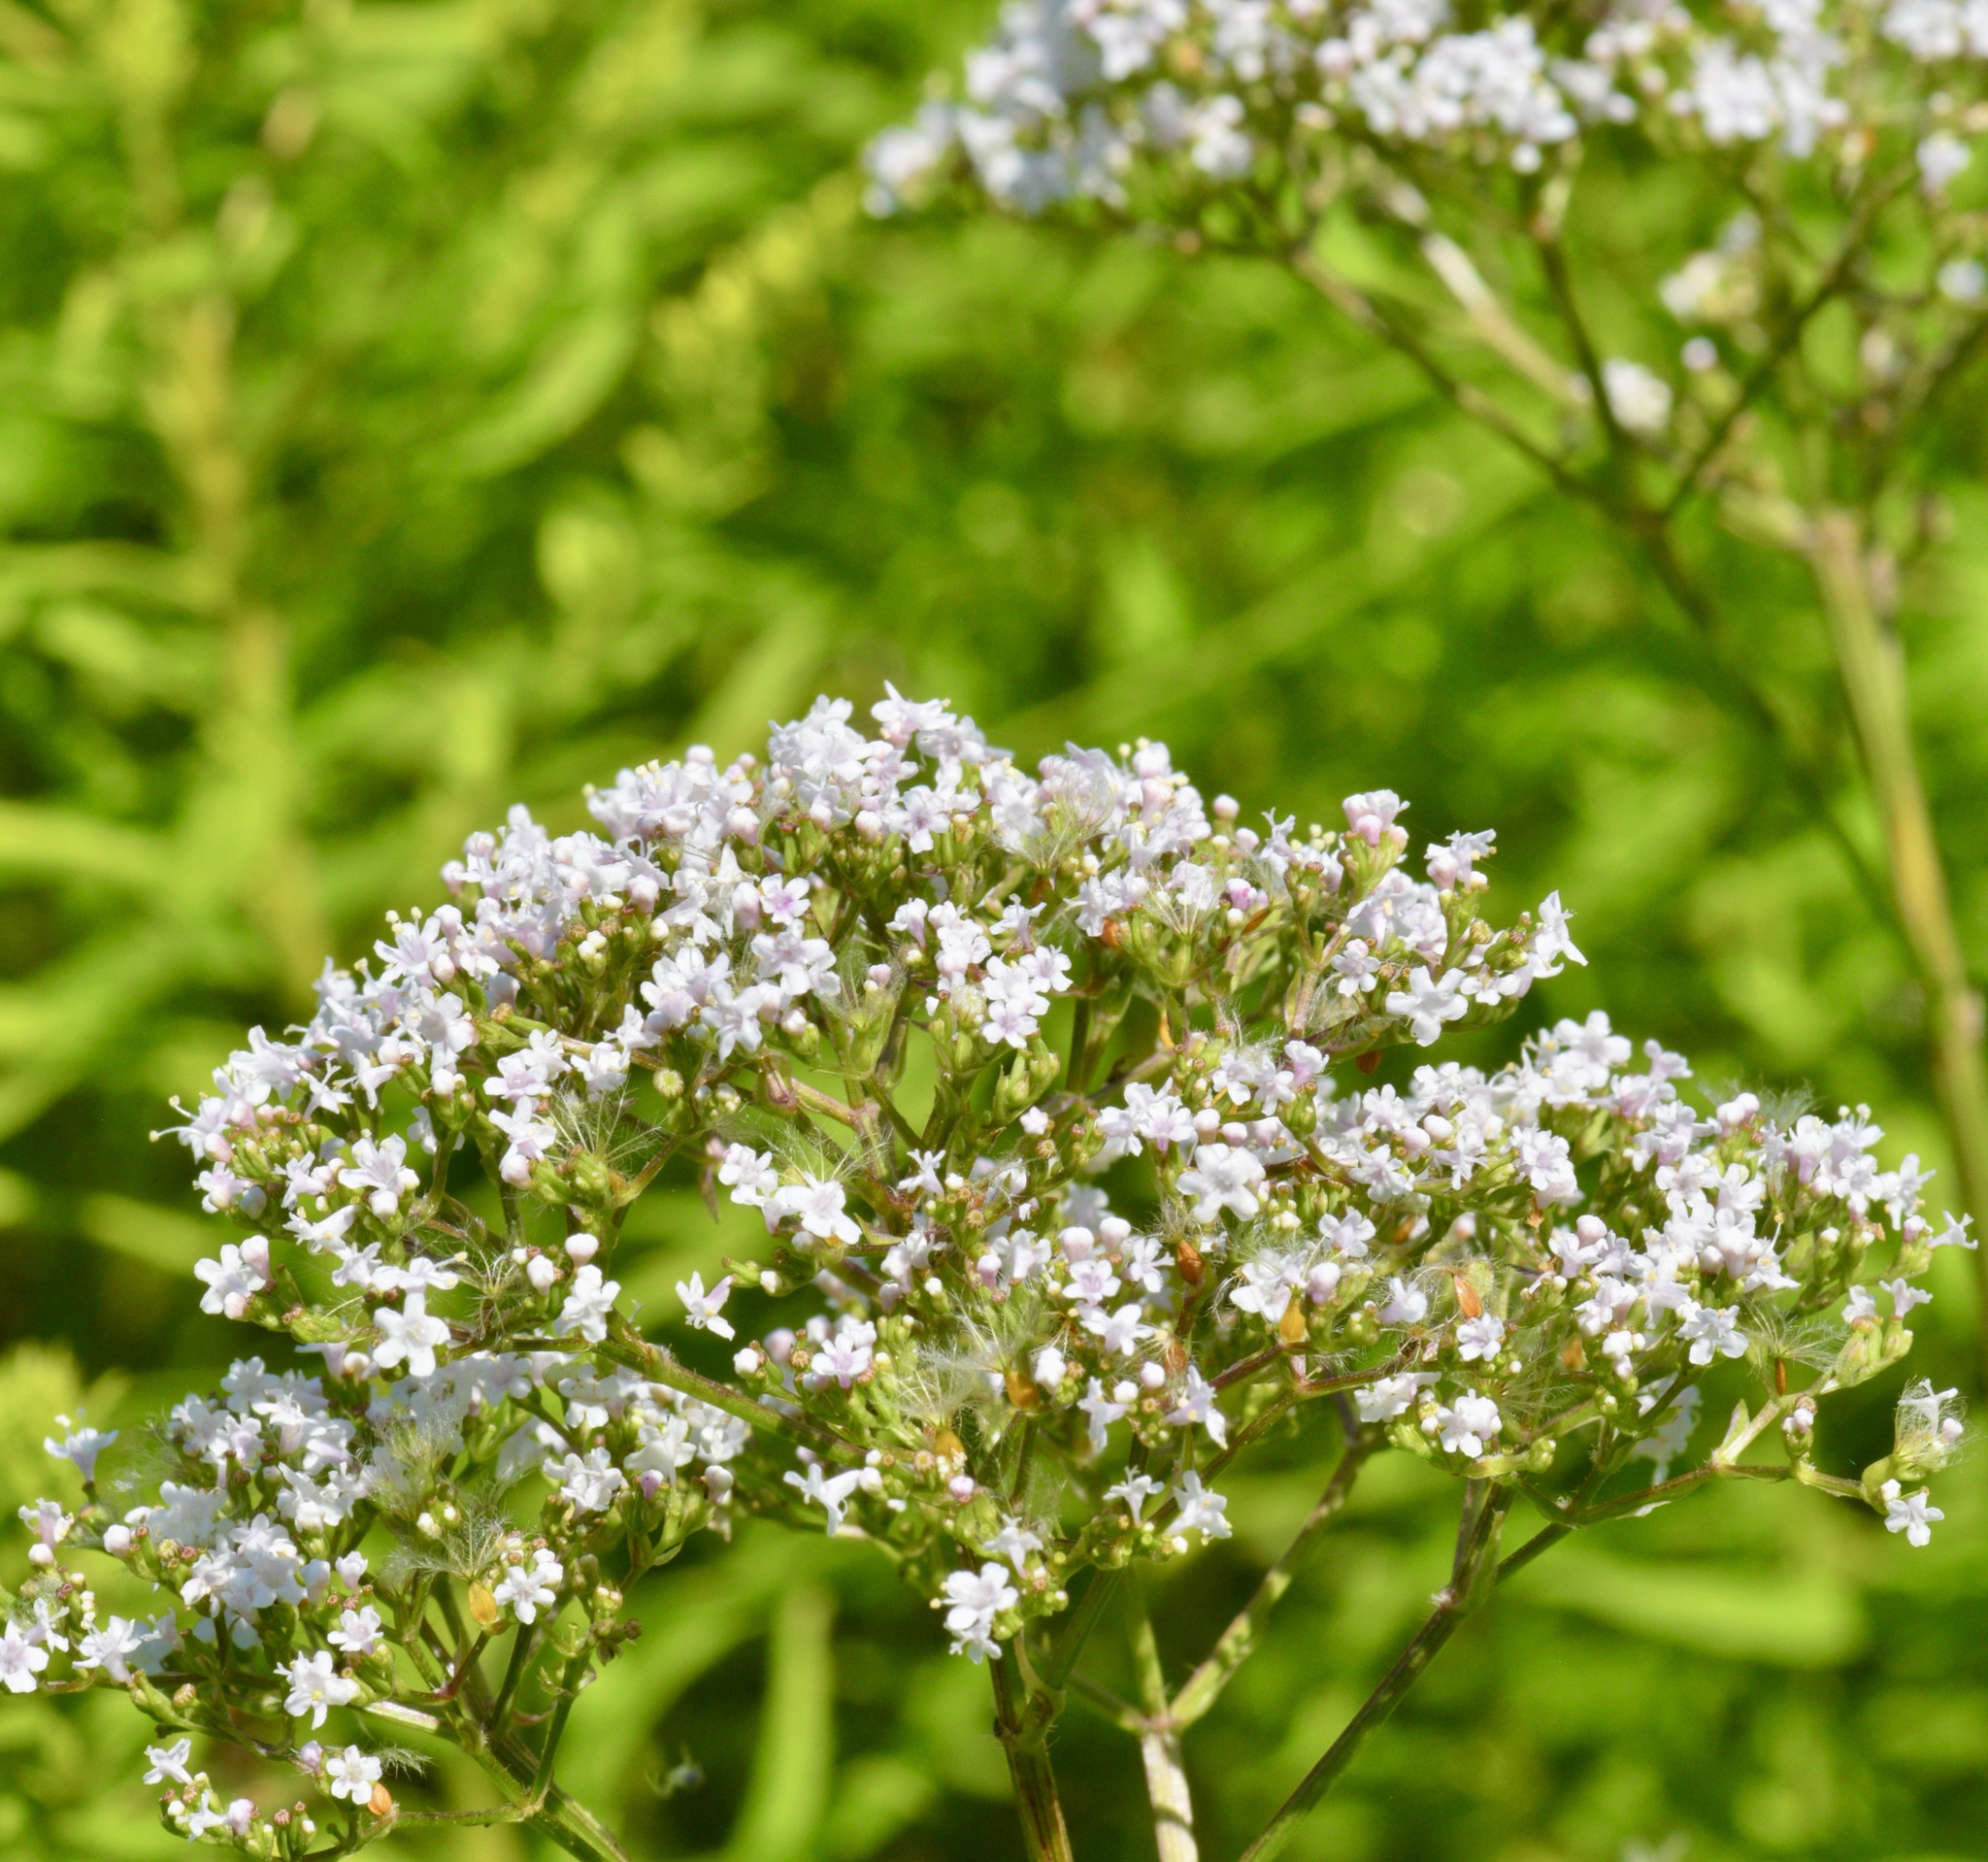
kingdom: Plantae
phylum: Tracheophyta
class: Magnoliopsida
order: Dipsacales
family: Caprifoliaceae
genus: Valeriana
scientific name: Valeriana officinalis
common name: Common valerian
